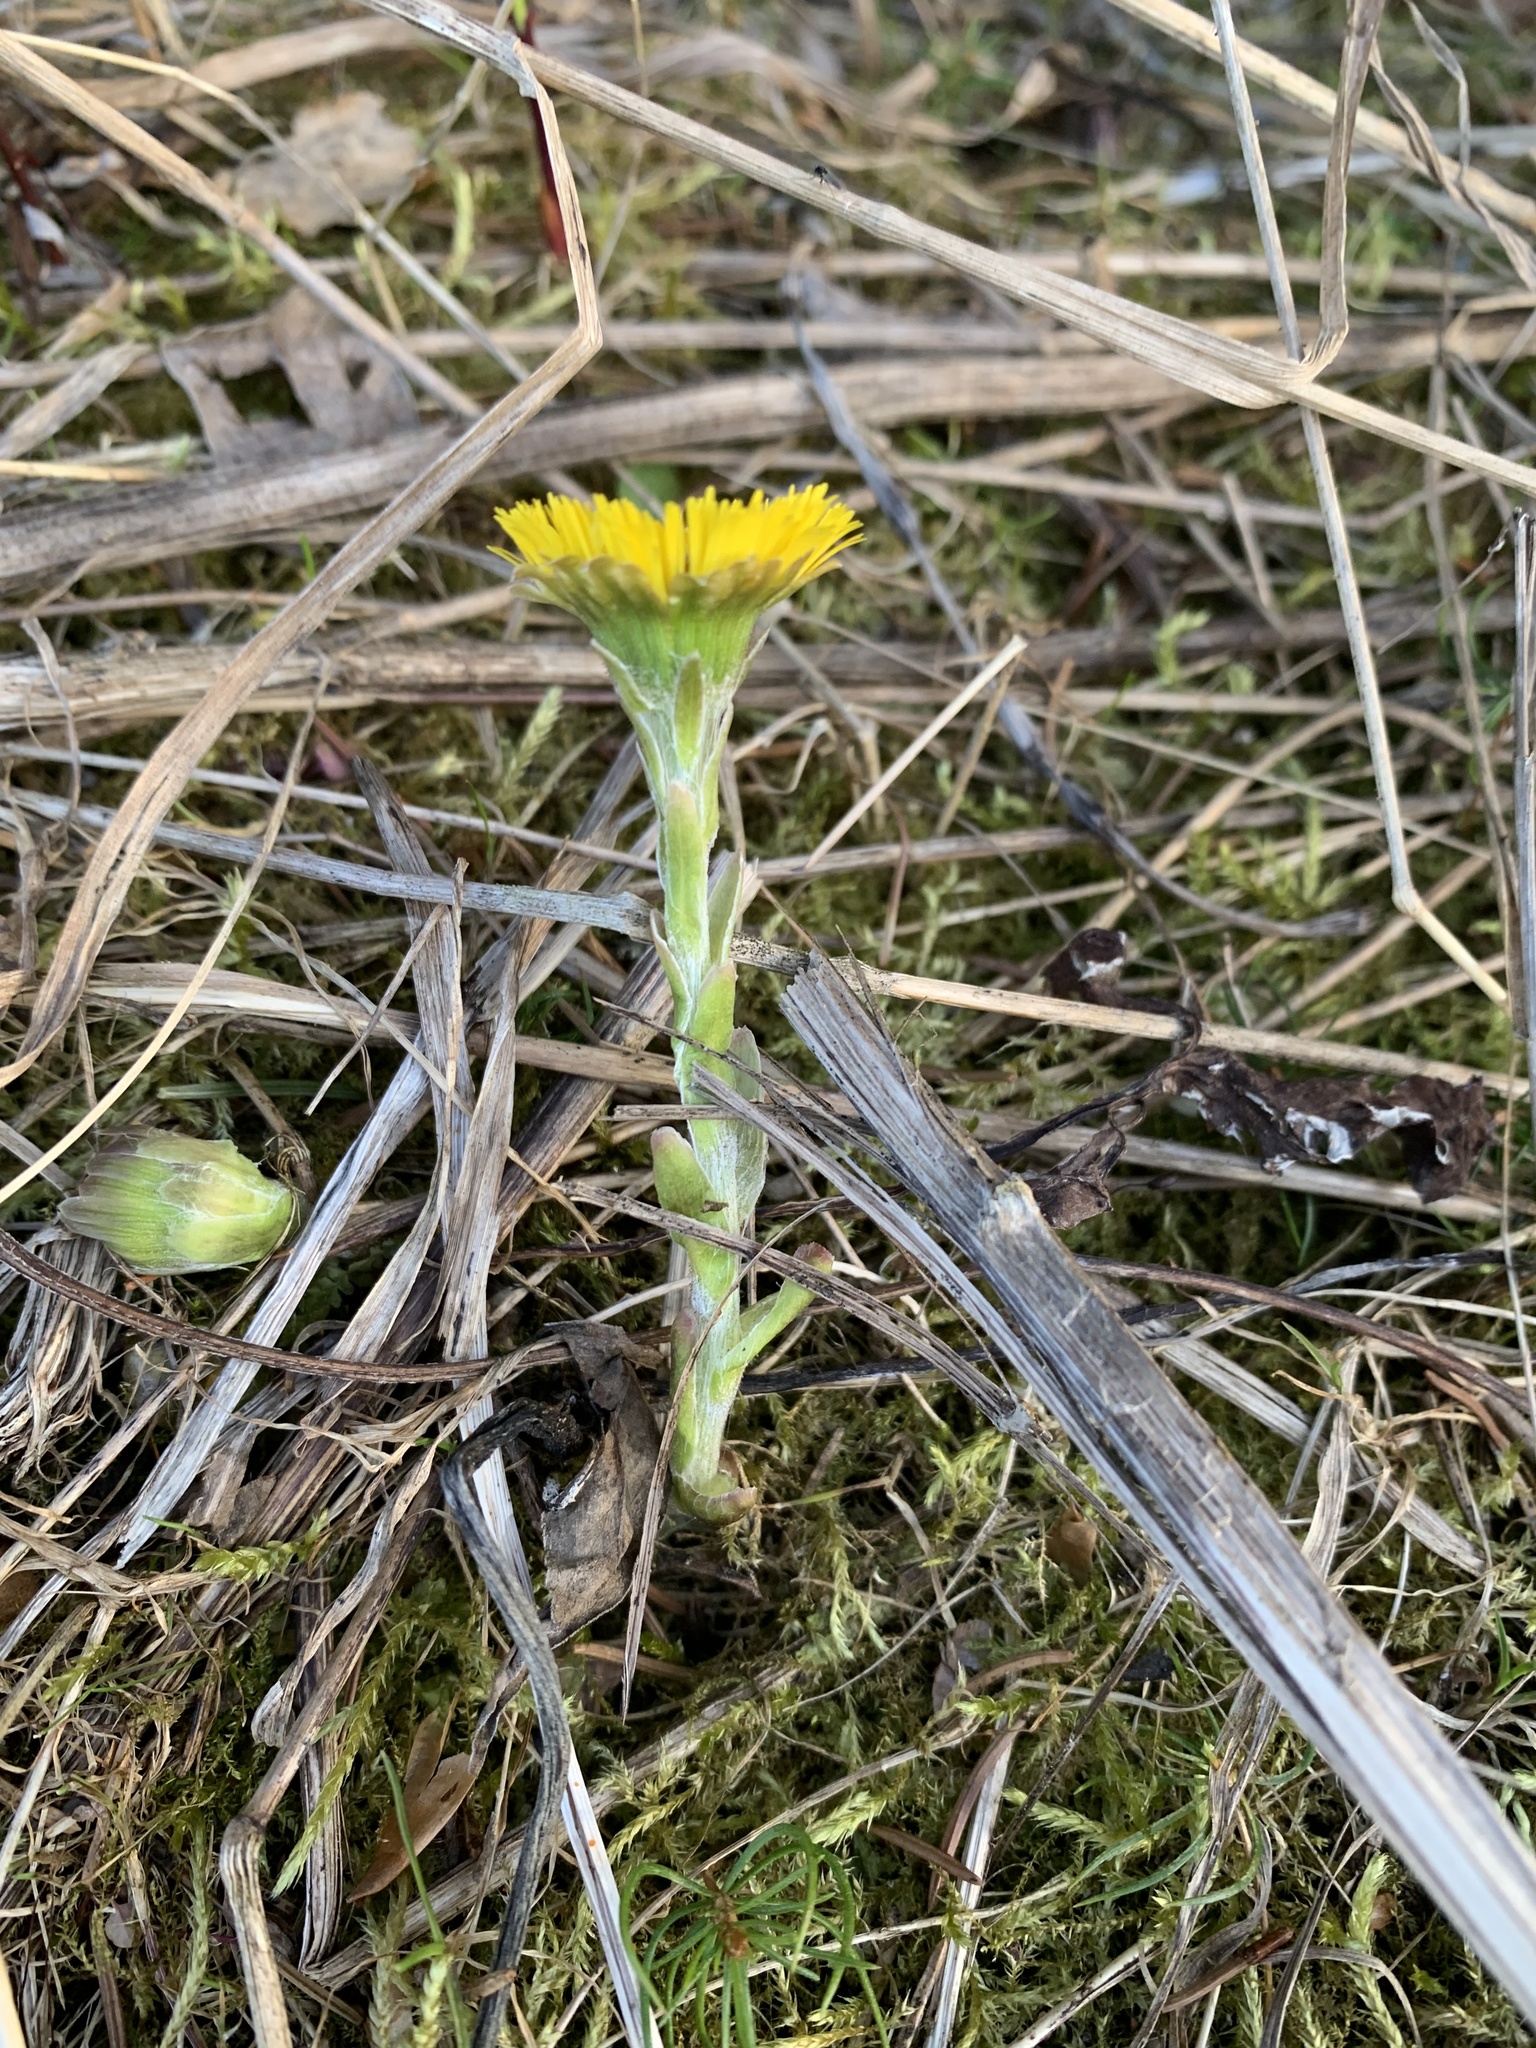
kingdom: Plantae
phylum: Tracheophyta
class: Magnoliopsida
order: Asterales
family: Asteraceae
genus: Tussilago
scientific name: Tussilago farfara
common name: Coltsfoot
